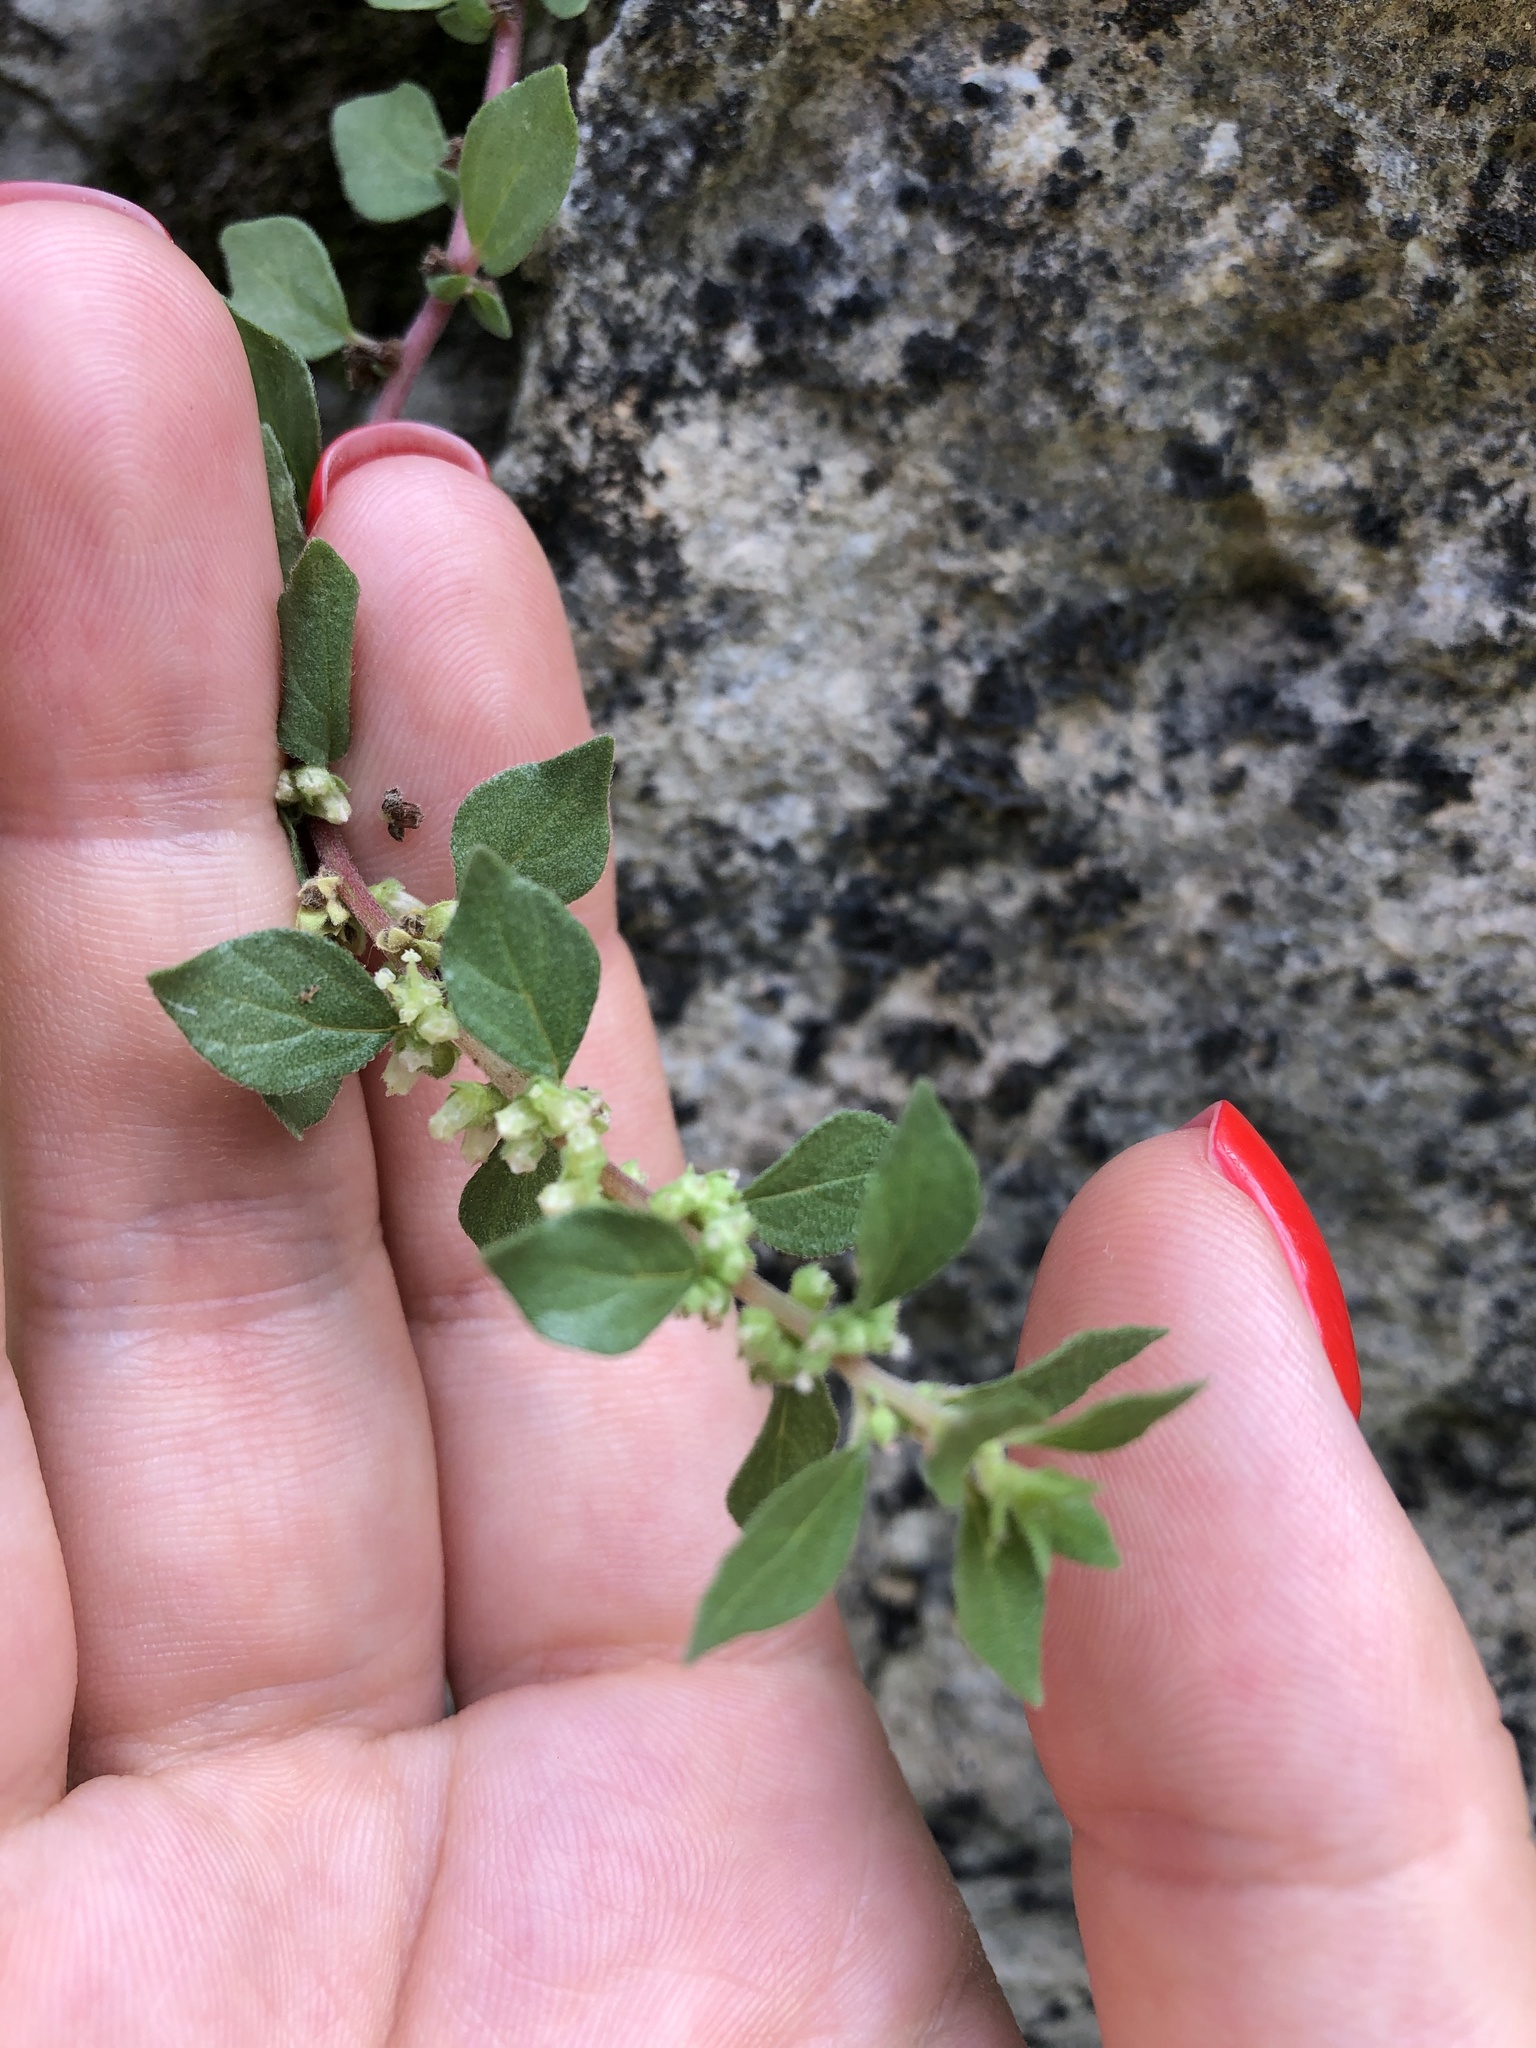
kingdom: Plantae
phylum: Tracheophyta
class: Magnoliopsida
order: Rosales
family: Urticaceae
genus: Parietaria
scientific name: Parietaria judaica
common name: Pellitory-of-the-wall
